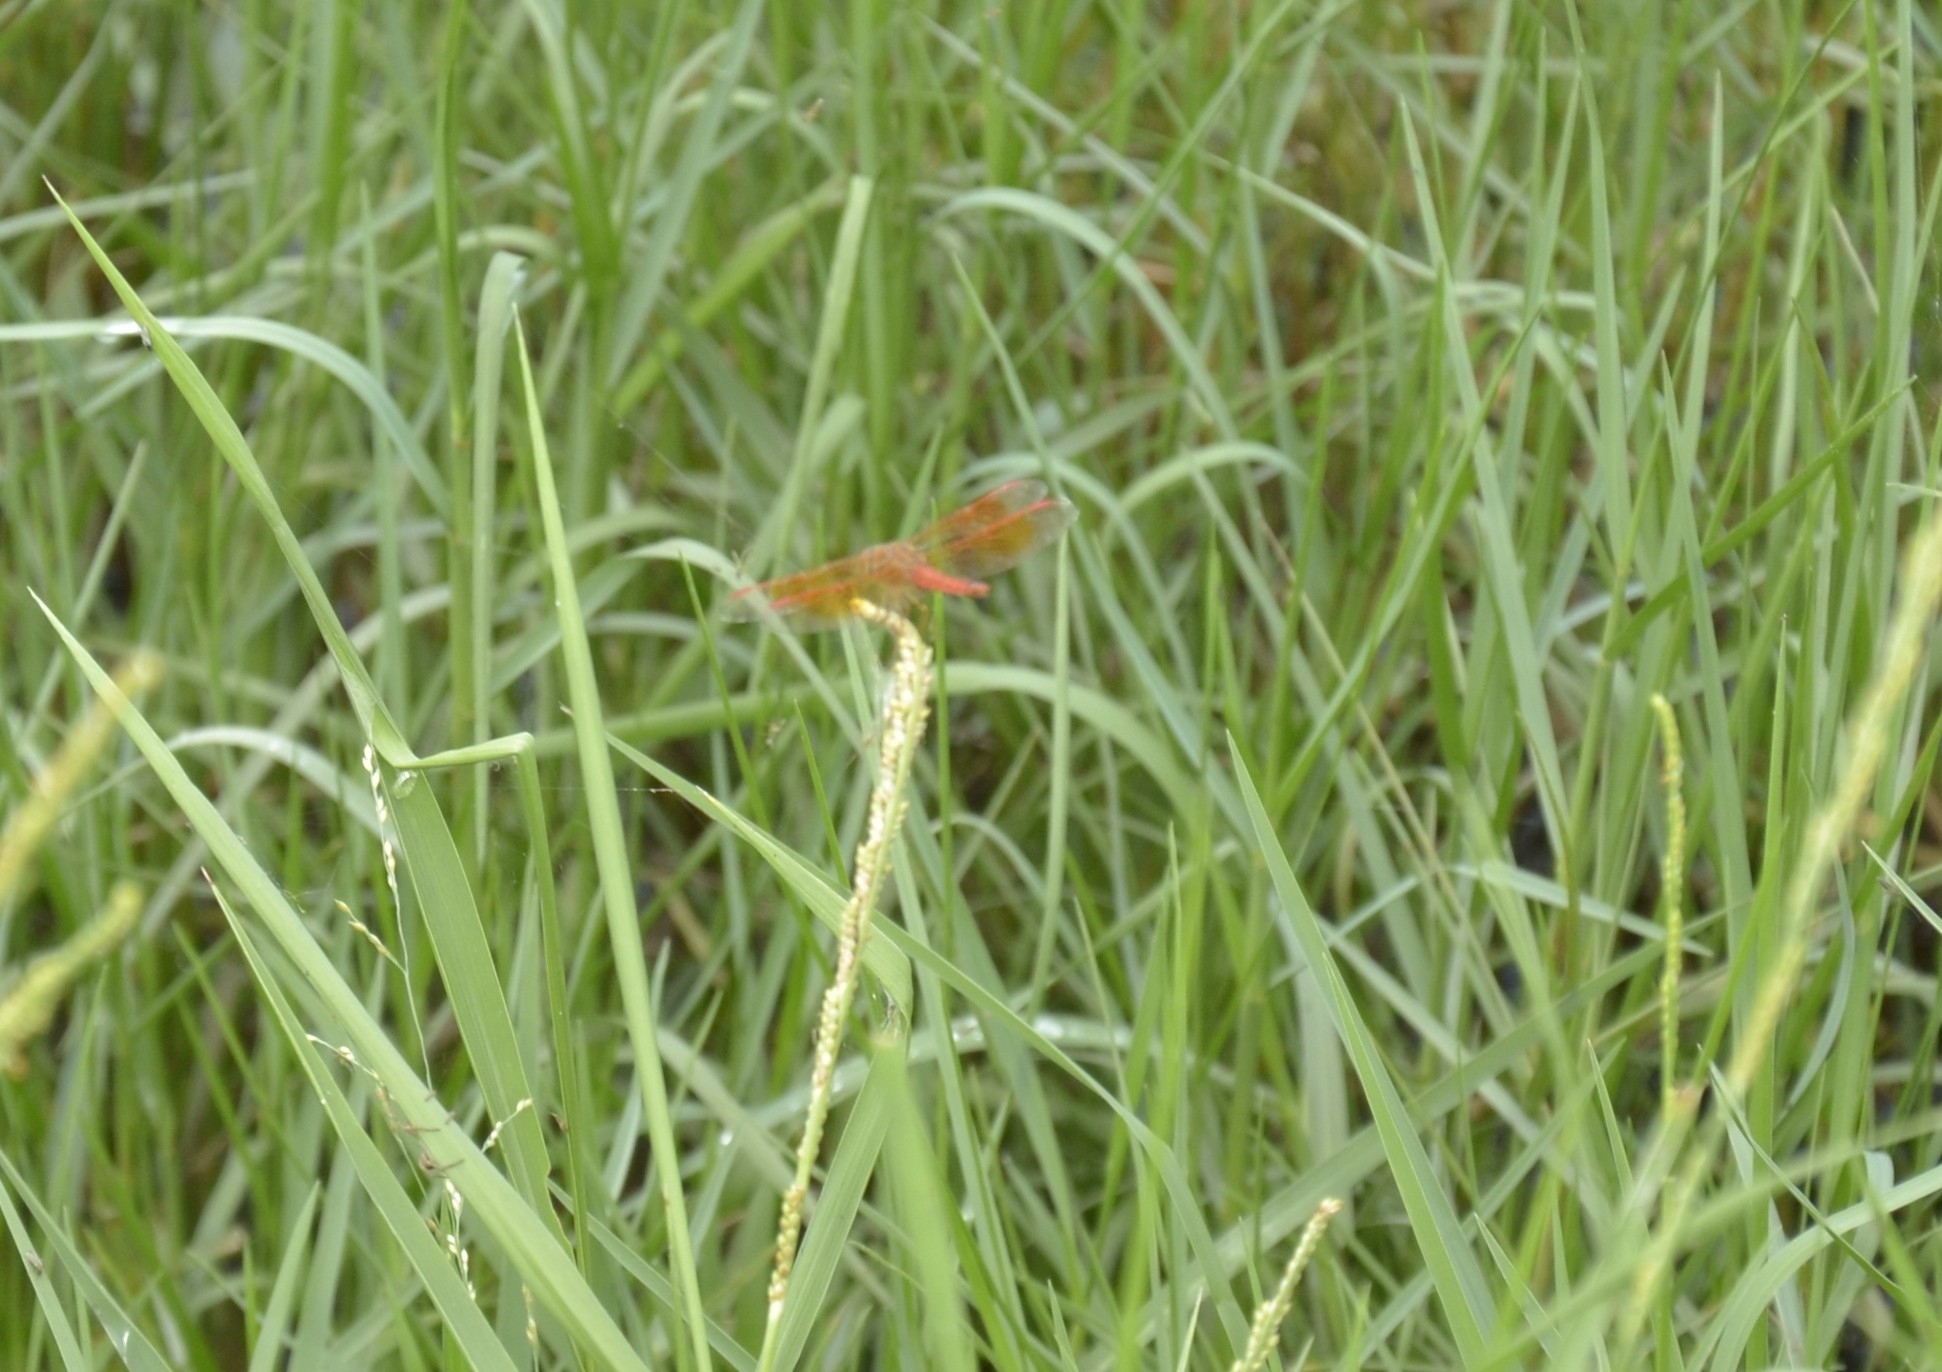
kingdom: Animalia
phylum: Arthropoda
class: Insecta
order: Odonata
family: Libellulidae
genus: Brachythemis
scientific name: Brachythemis contaminata
